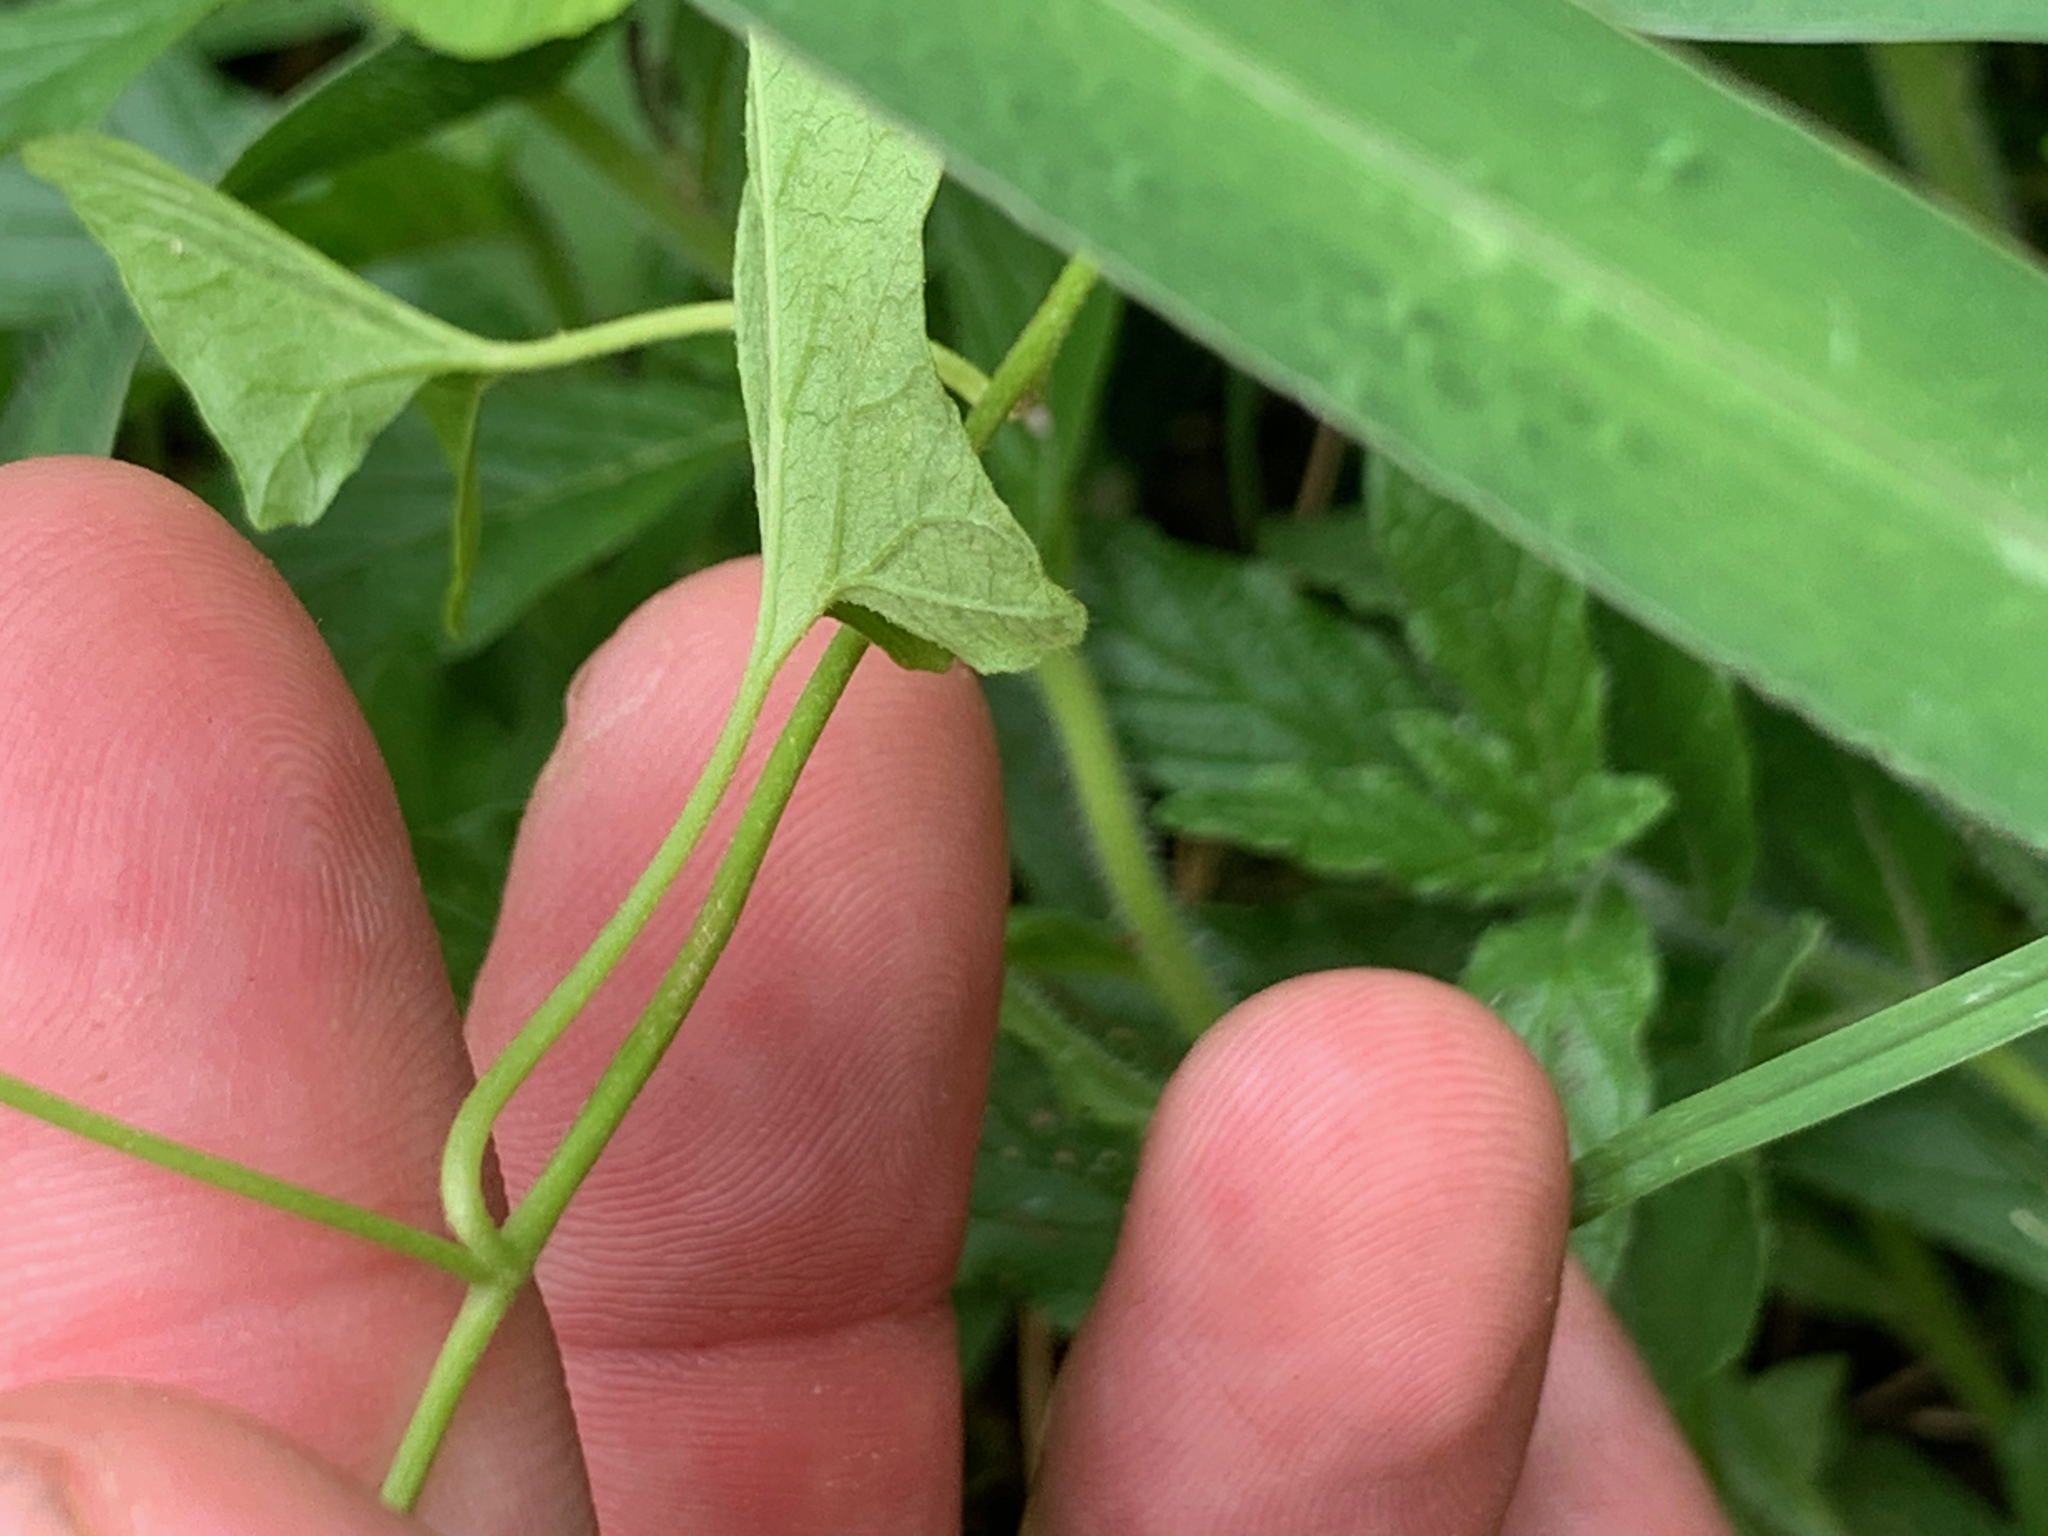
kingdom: Plantae
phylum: Tracheophyta
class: Magnoliopsida
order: Solanales
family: Convolvulaceae
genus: Convolvulus
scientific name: Convolvulus farinosus
